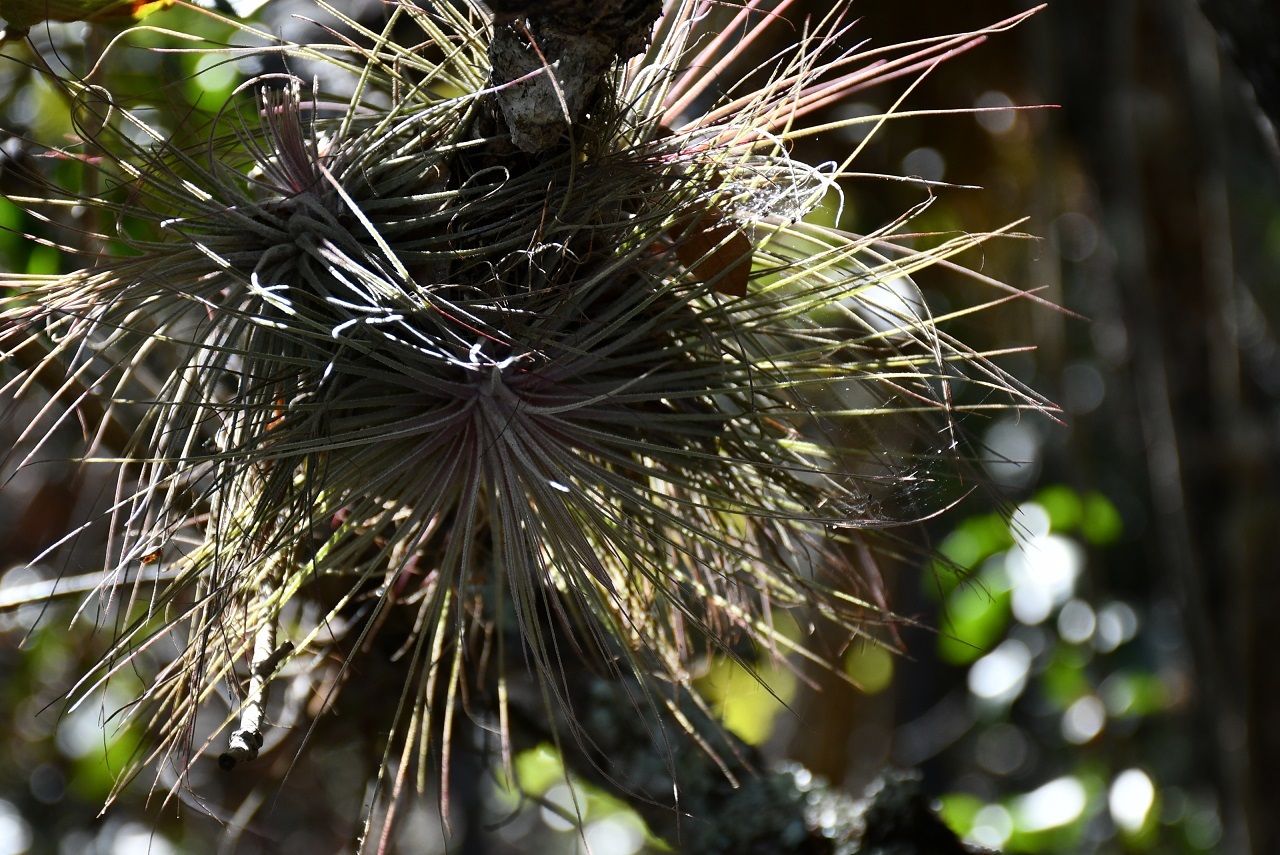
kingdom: Plantae
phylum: Tracheophyta
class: Liliopsida
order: Poales
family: Bromeliaceae
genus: Tillandsia
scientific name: Tillandsia fuchsii
